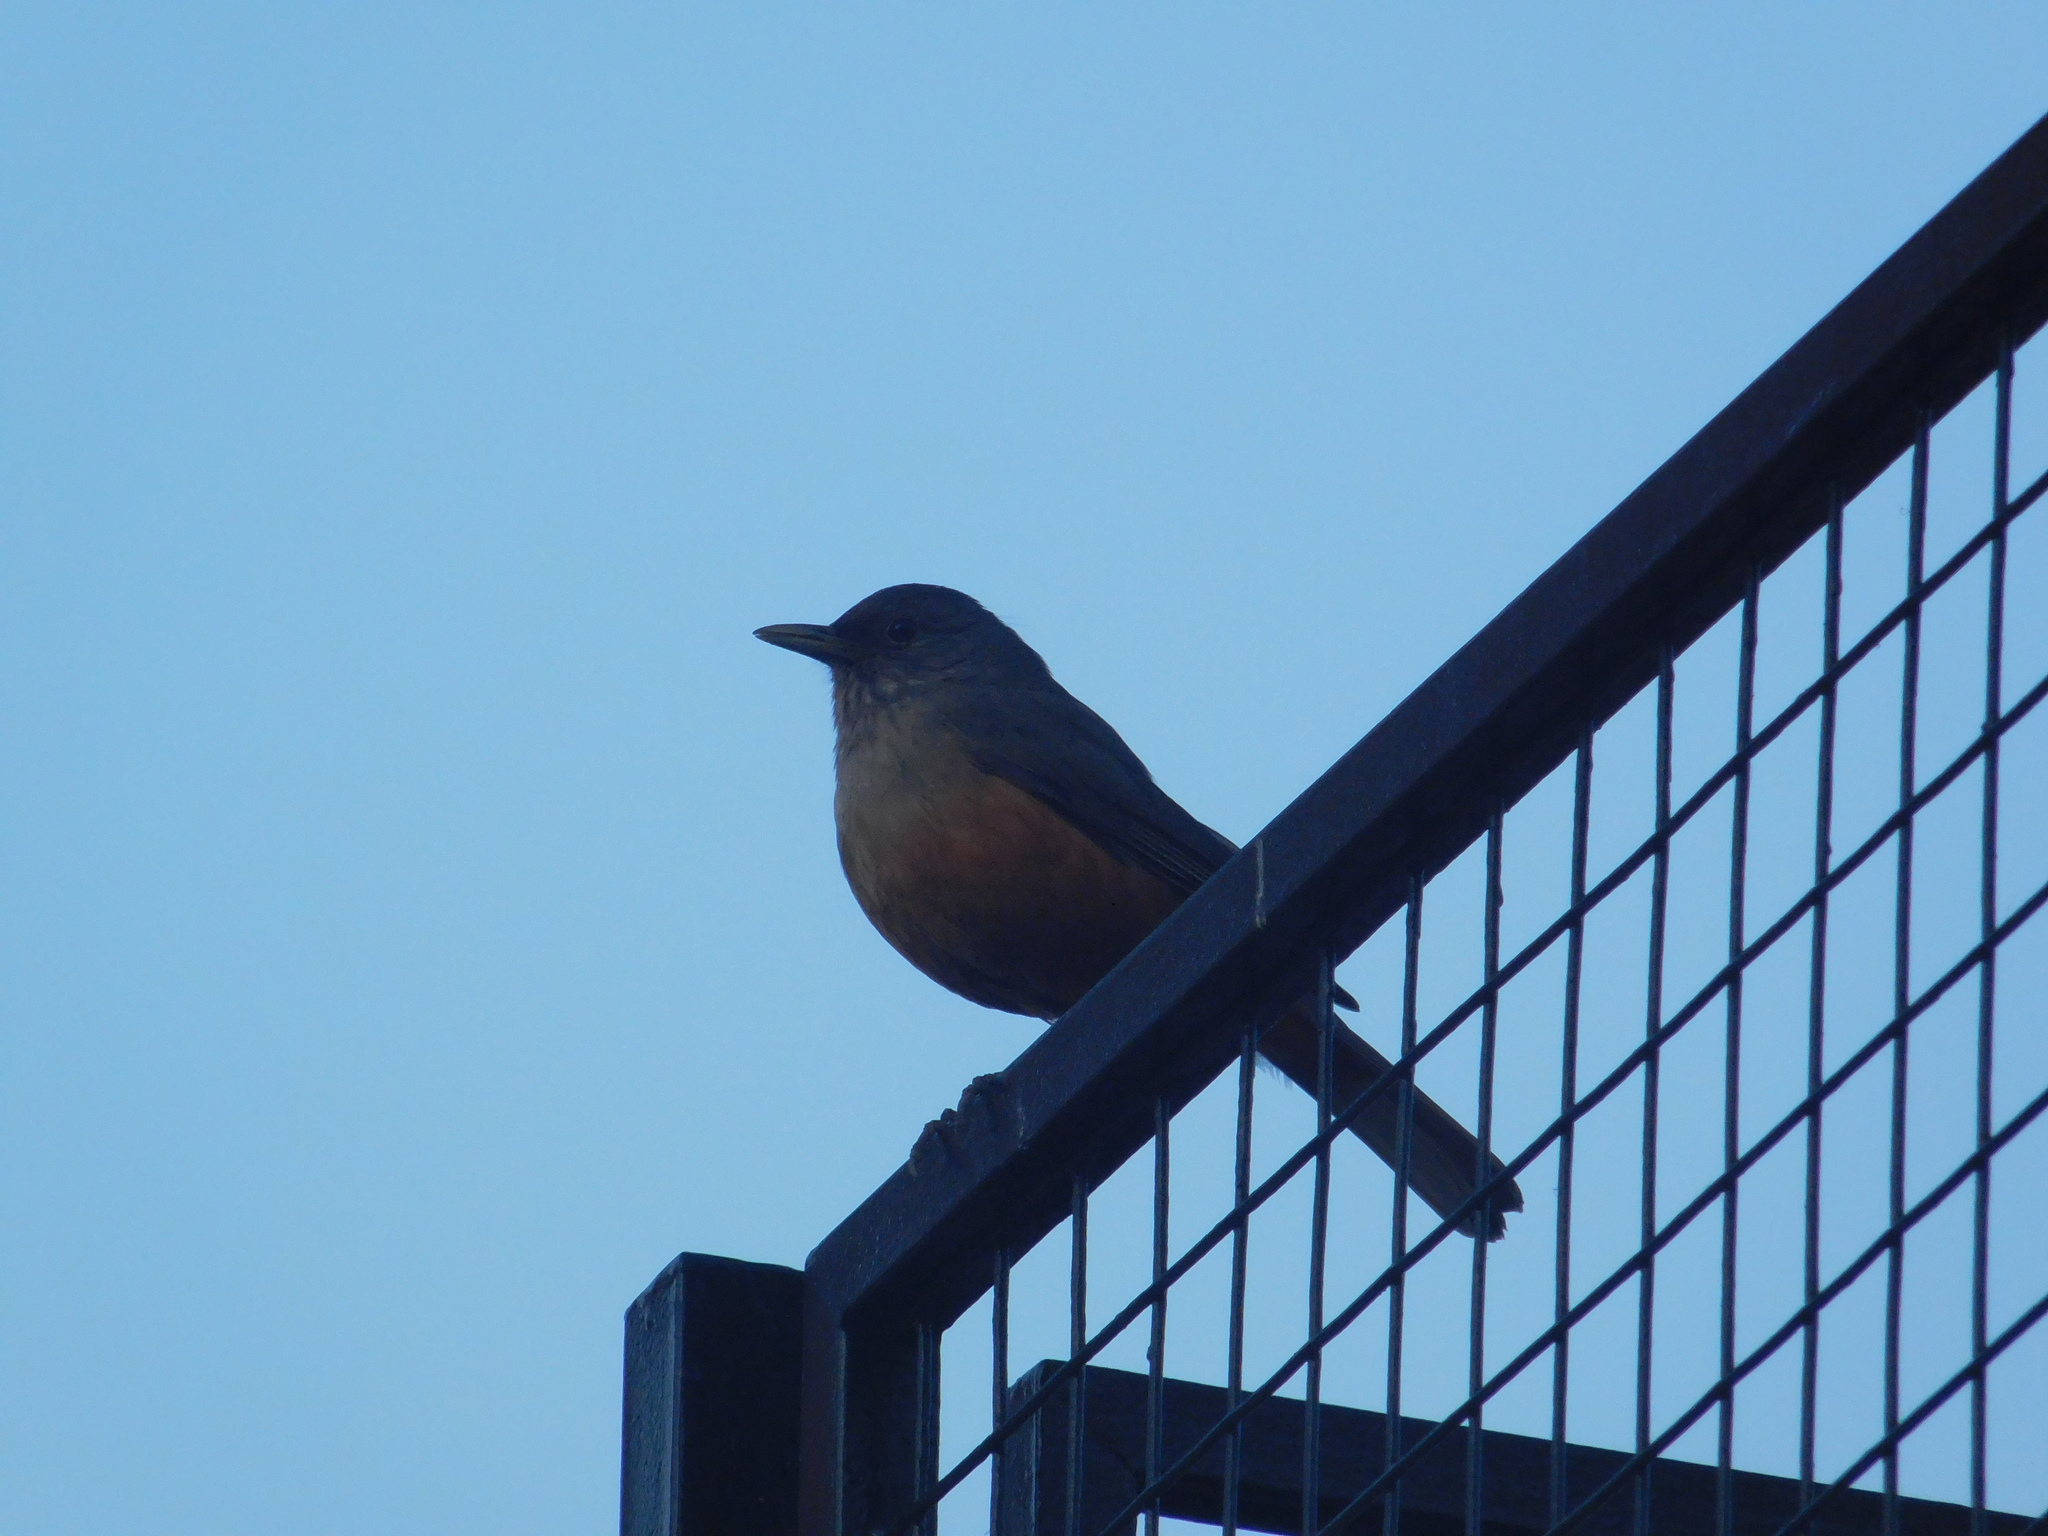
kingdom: Animalia
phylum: Chordata
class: Aves
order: Passeriformes
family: Turdidae
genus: Turdus
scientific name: Turdus rufiventris
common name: Rufous-bellied thrush
